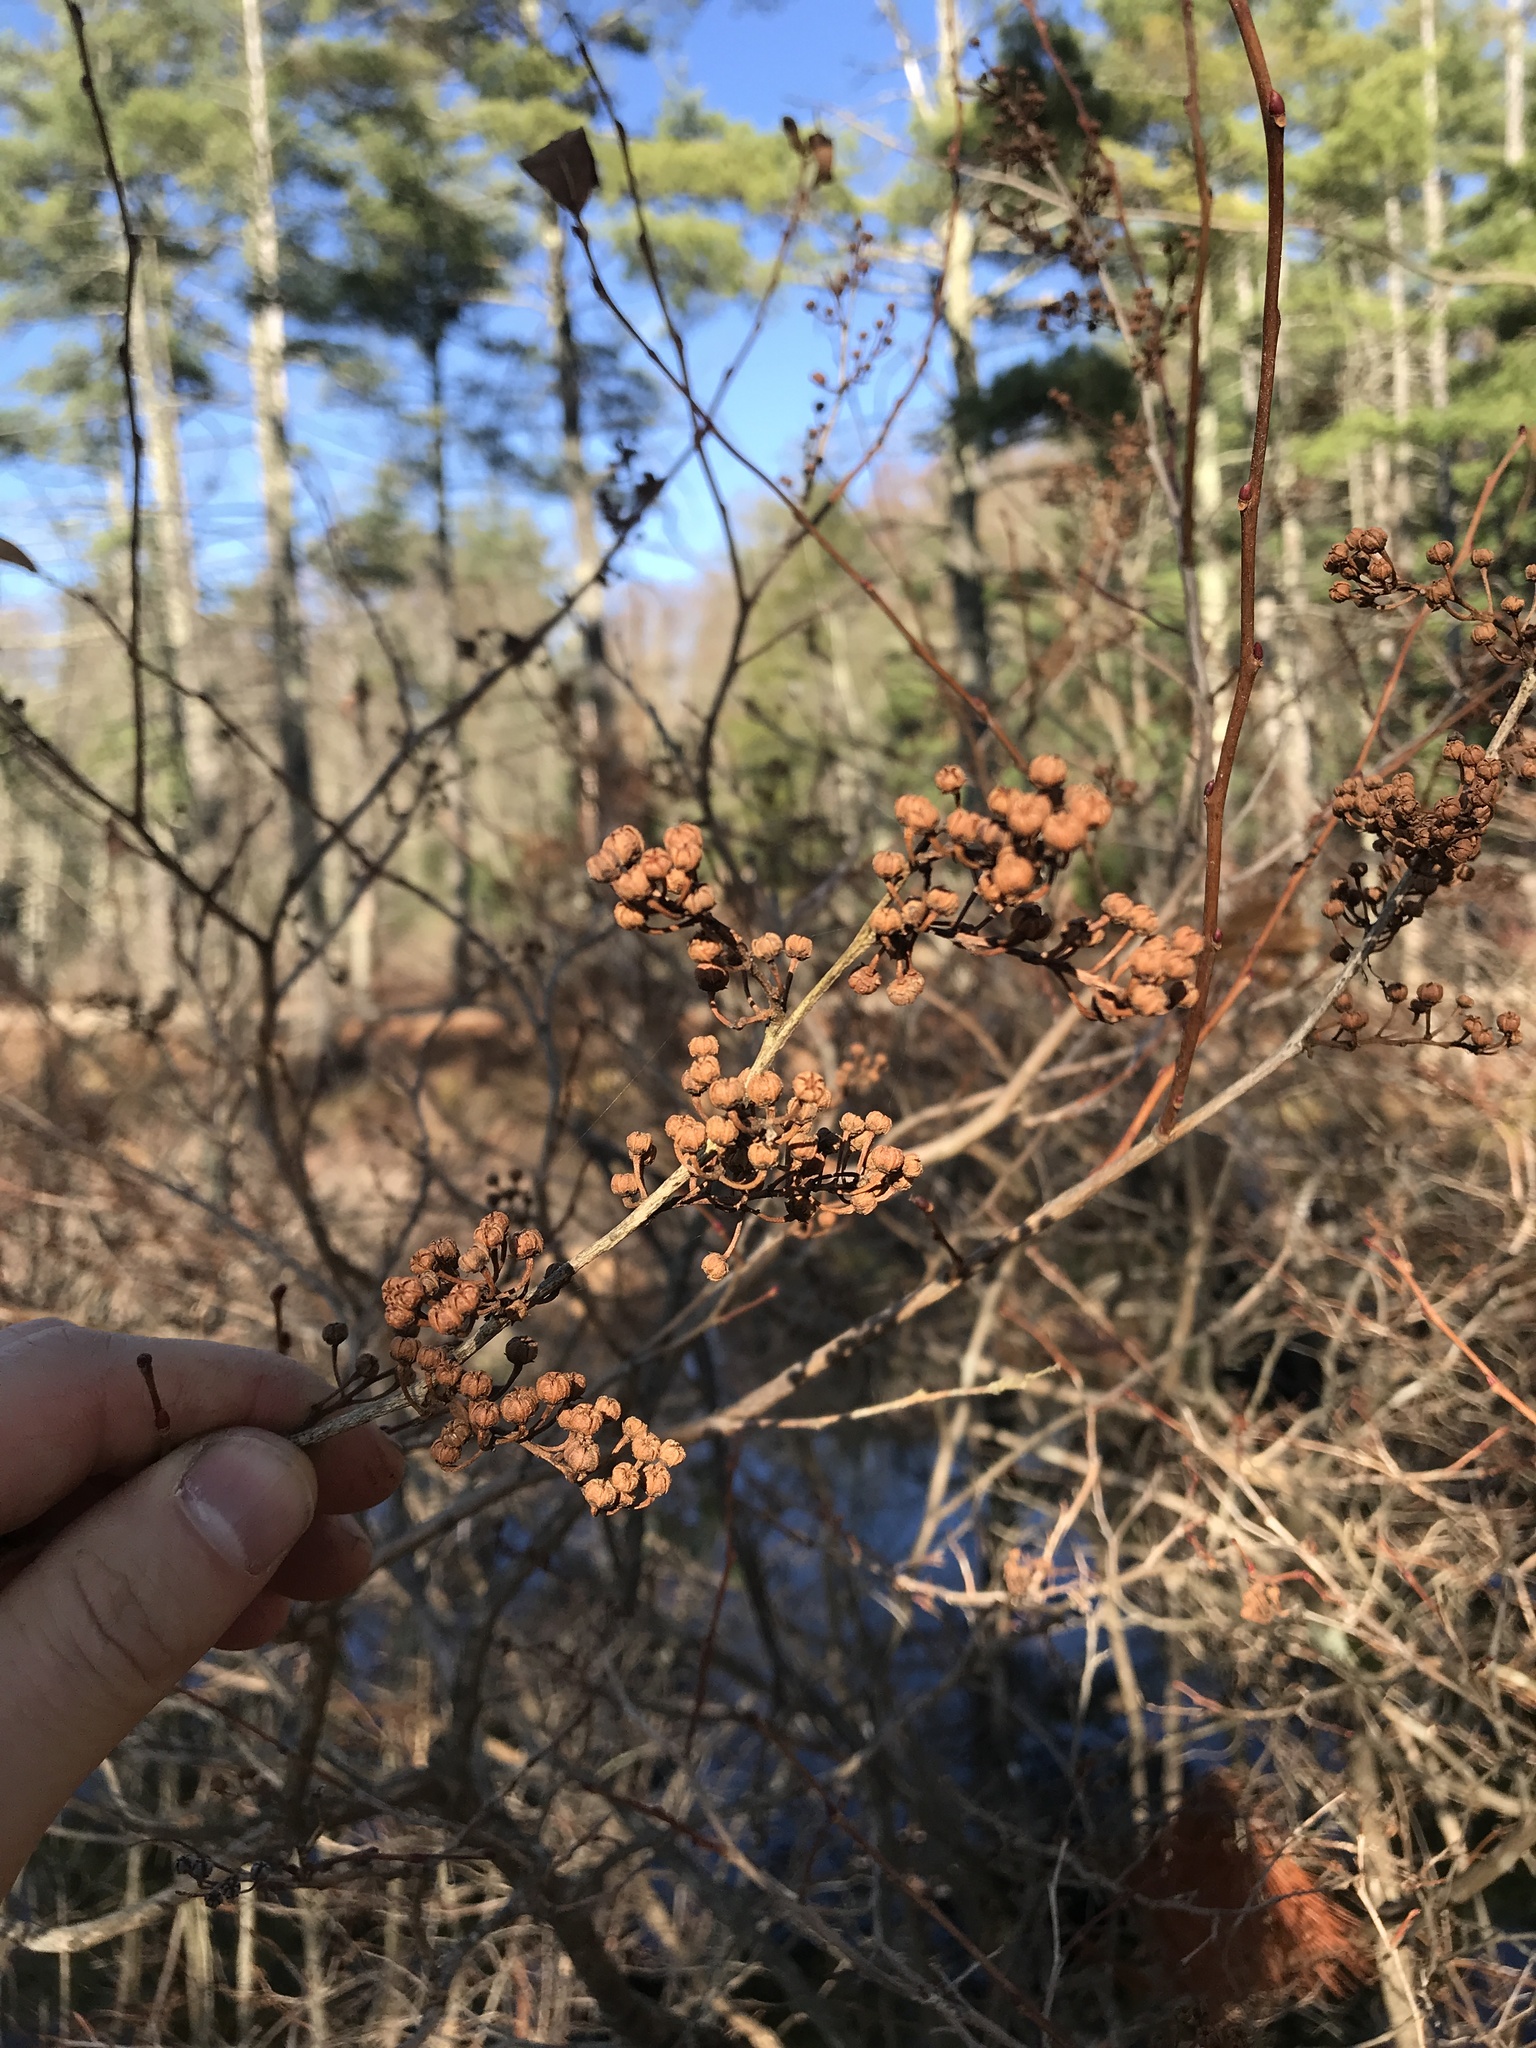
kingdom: Plantae
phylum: Tracheophyta
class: Magnoliopsida
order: Ericales
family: Ericaceae
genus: Lyonia
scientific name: Lyonia ligustrina
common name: Maleberry
